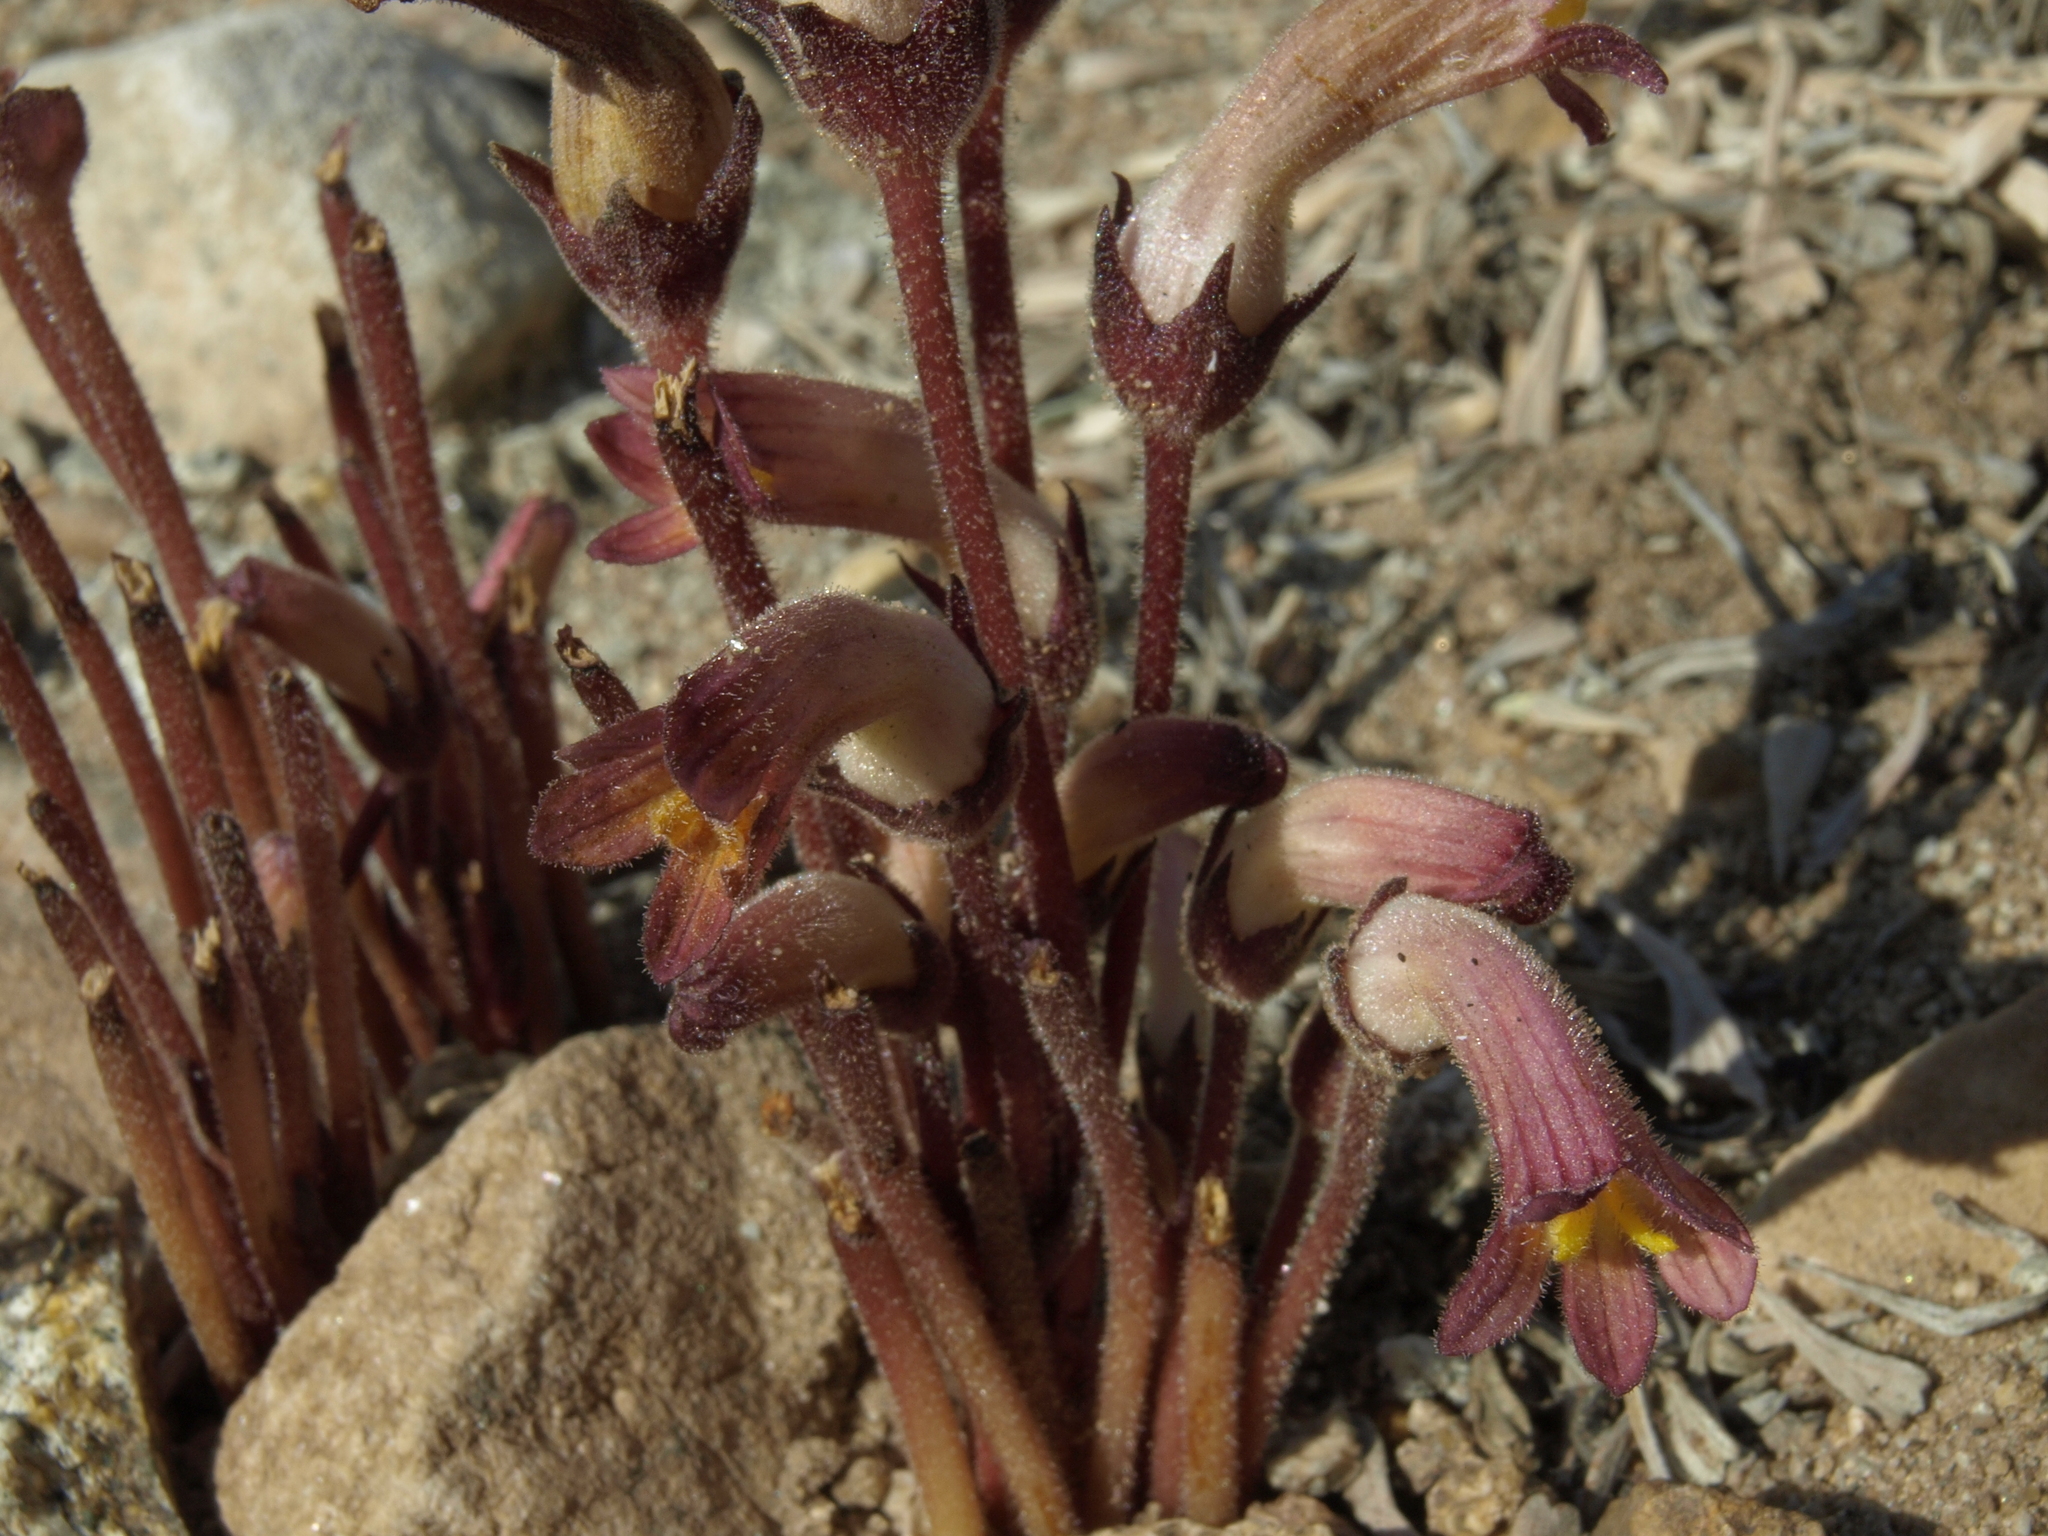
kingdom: Plantae
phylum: Tracheophyta
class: Magnoliopsida
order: Lamiales
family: Orobanchaceae
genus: Aphyllon
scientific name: Aphyllon fasciculatum
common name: Clustered broomrape
